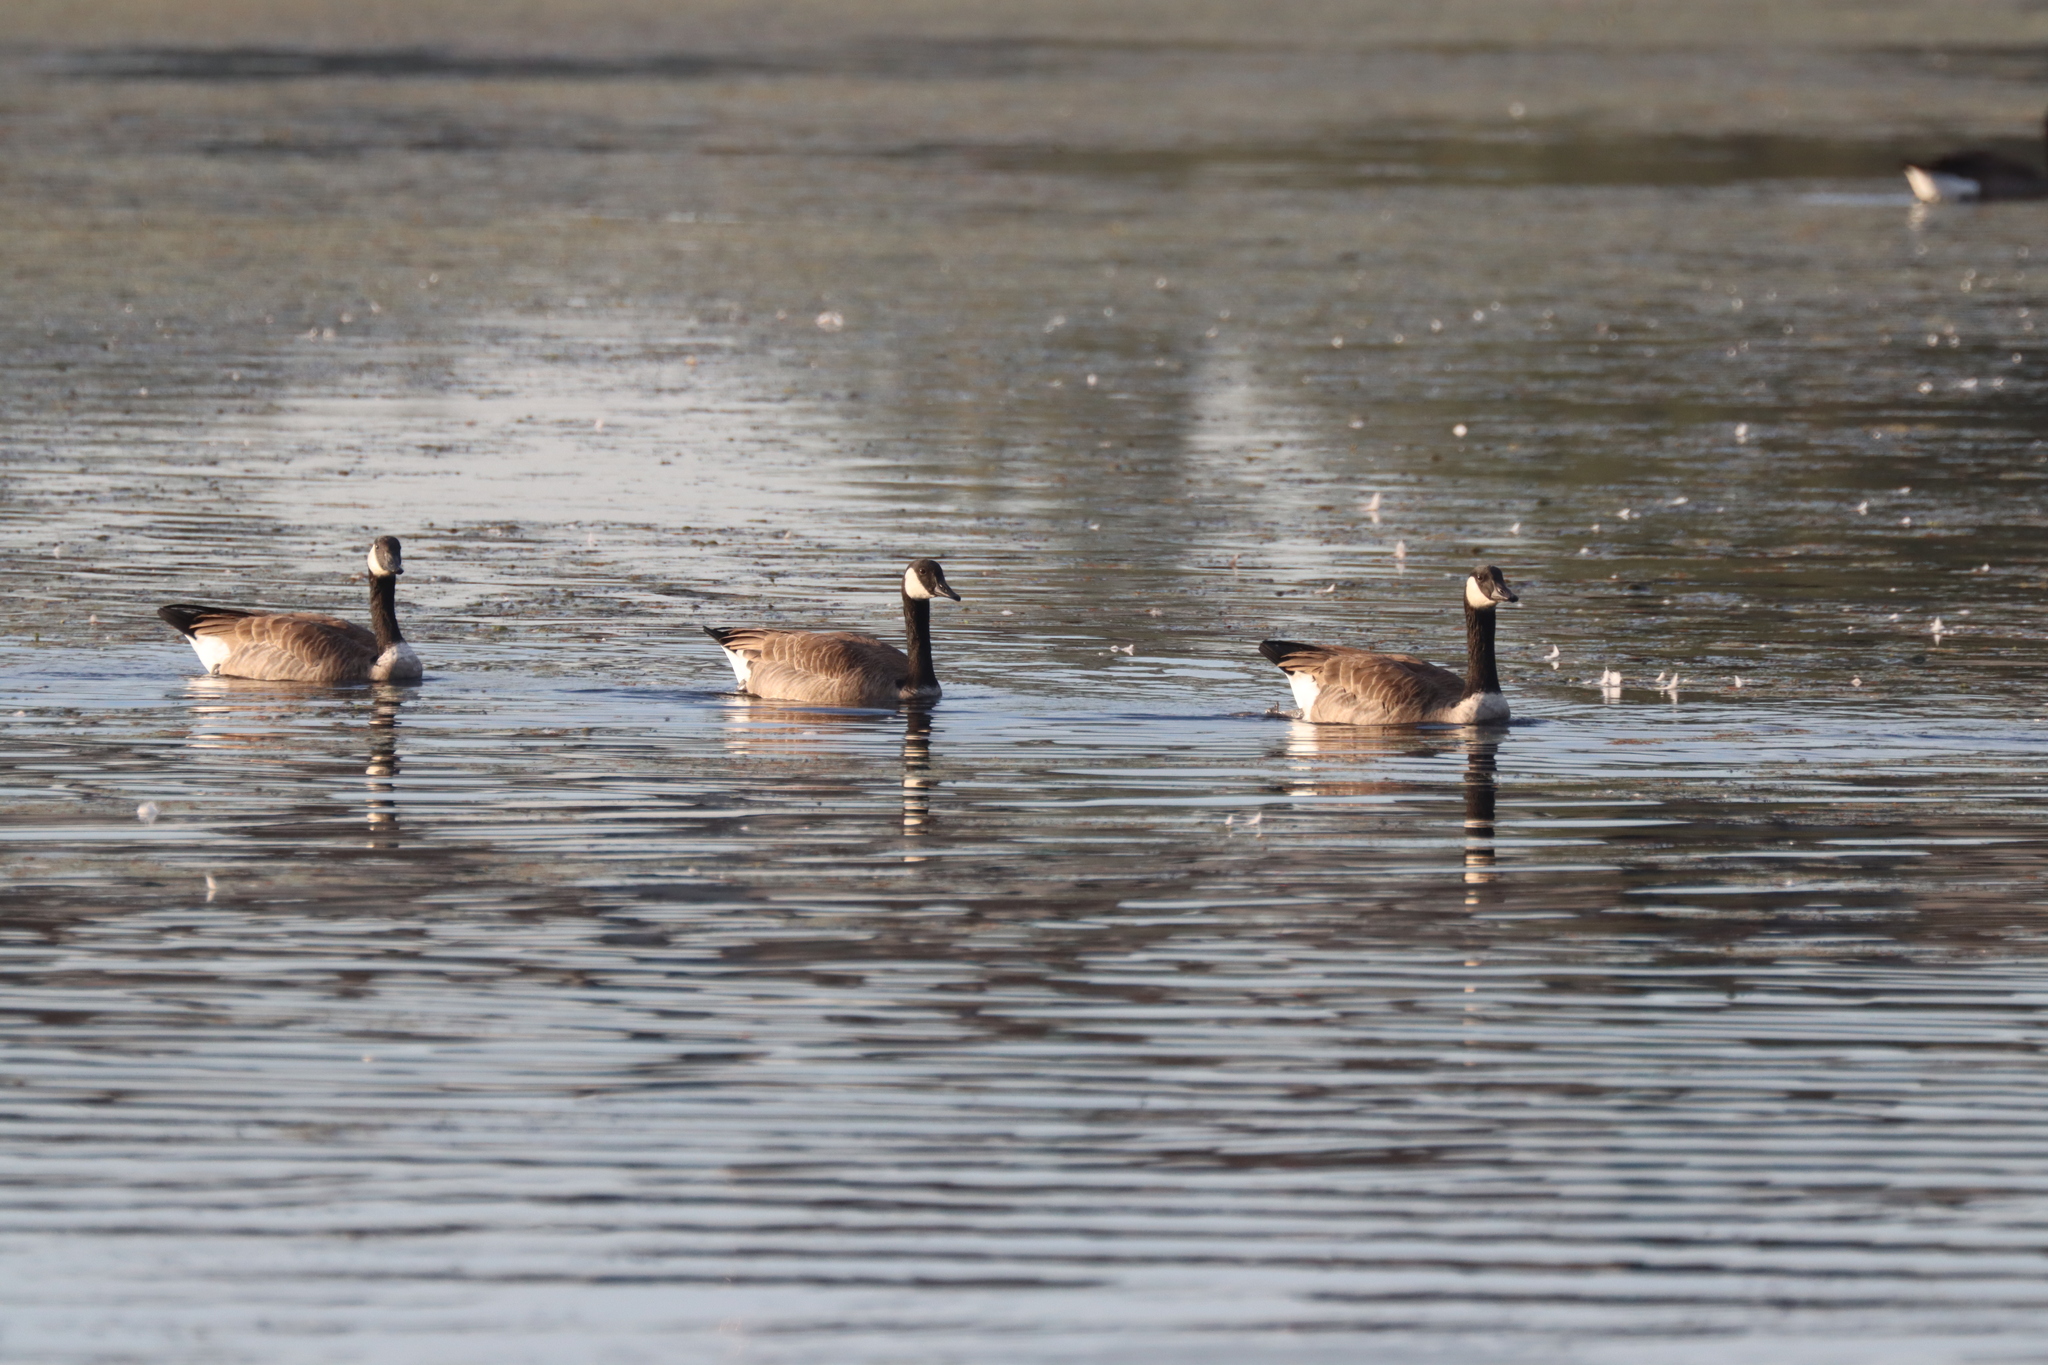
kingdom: Animalia
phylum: Chordata
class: Aves
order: Anseriformes
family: Anatidae
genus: Branta
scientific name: Branta canadensis
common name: Canada goose
